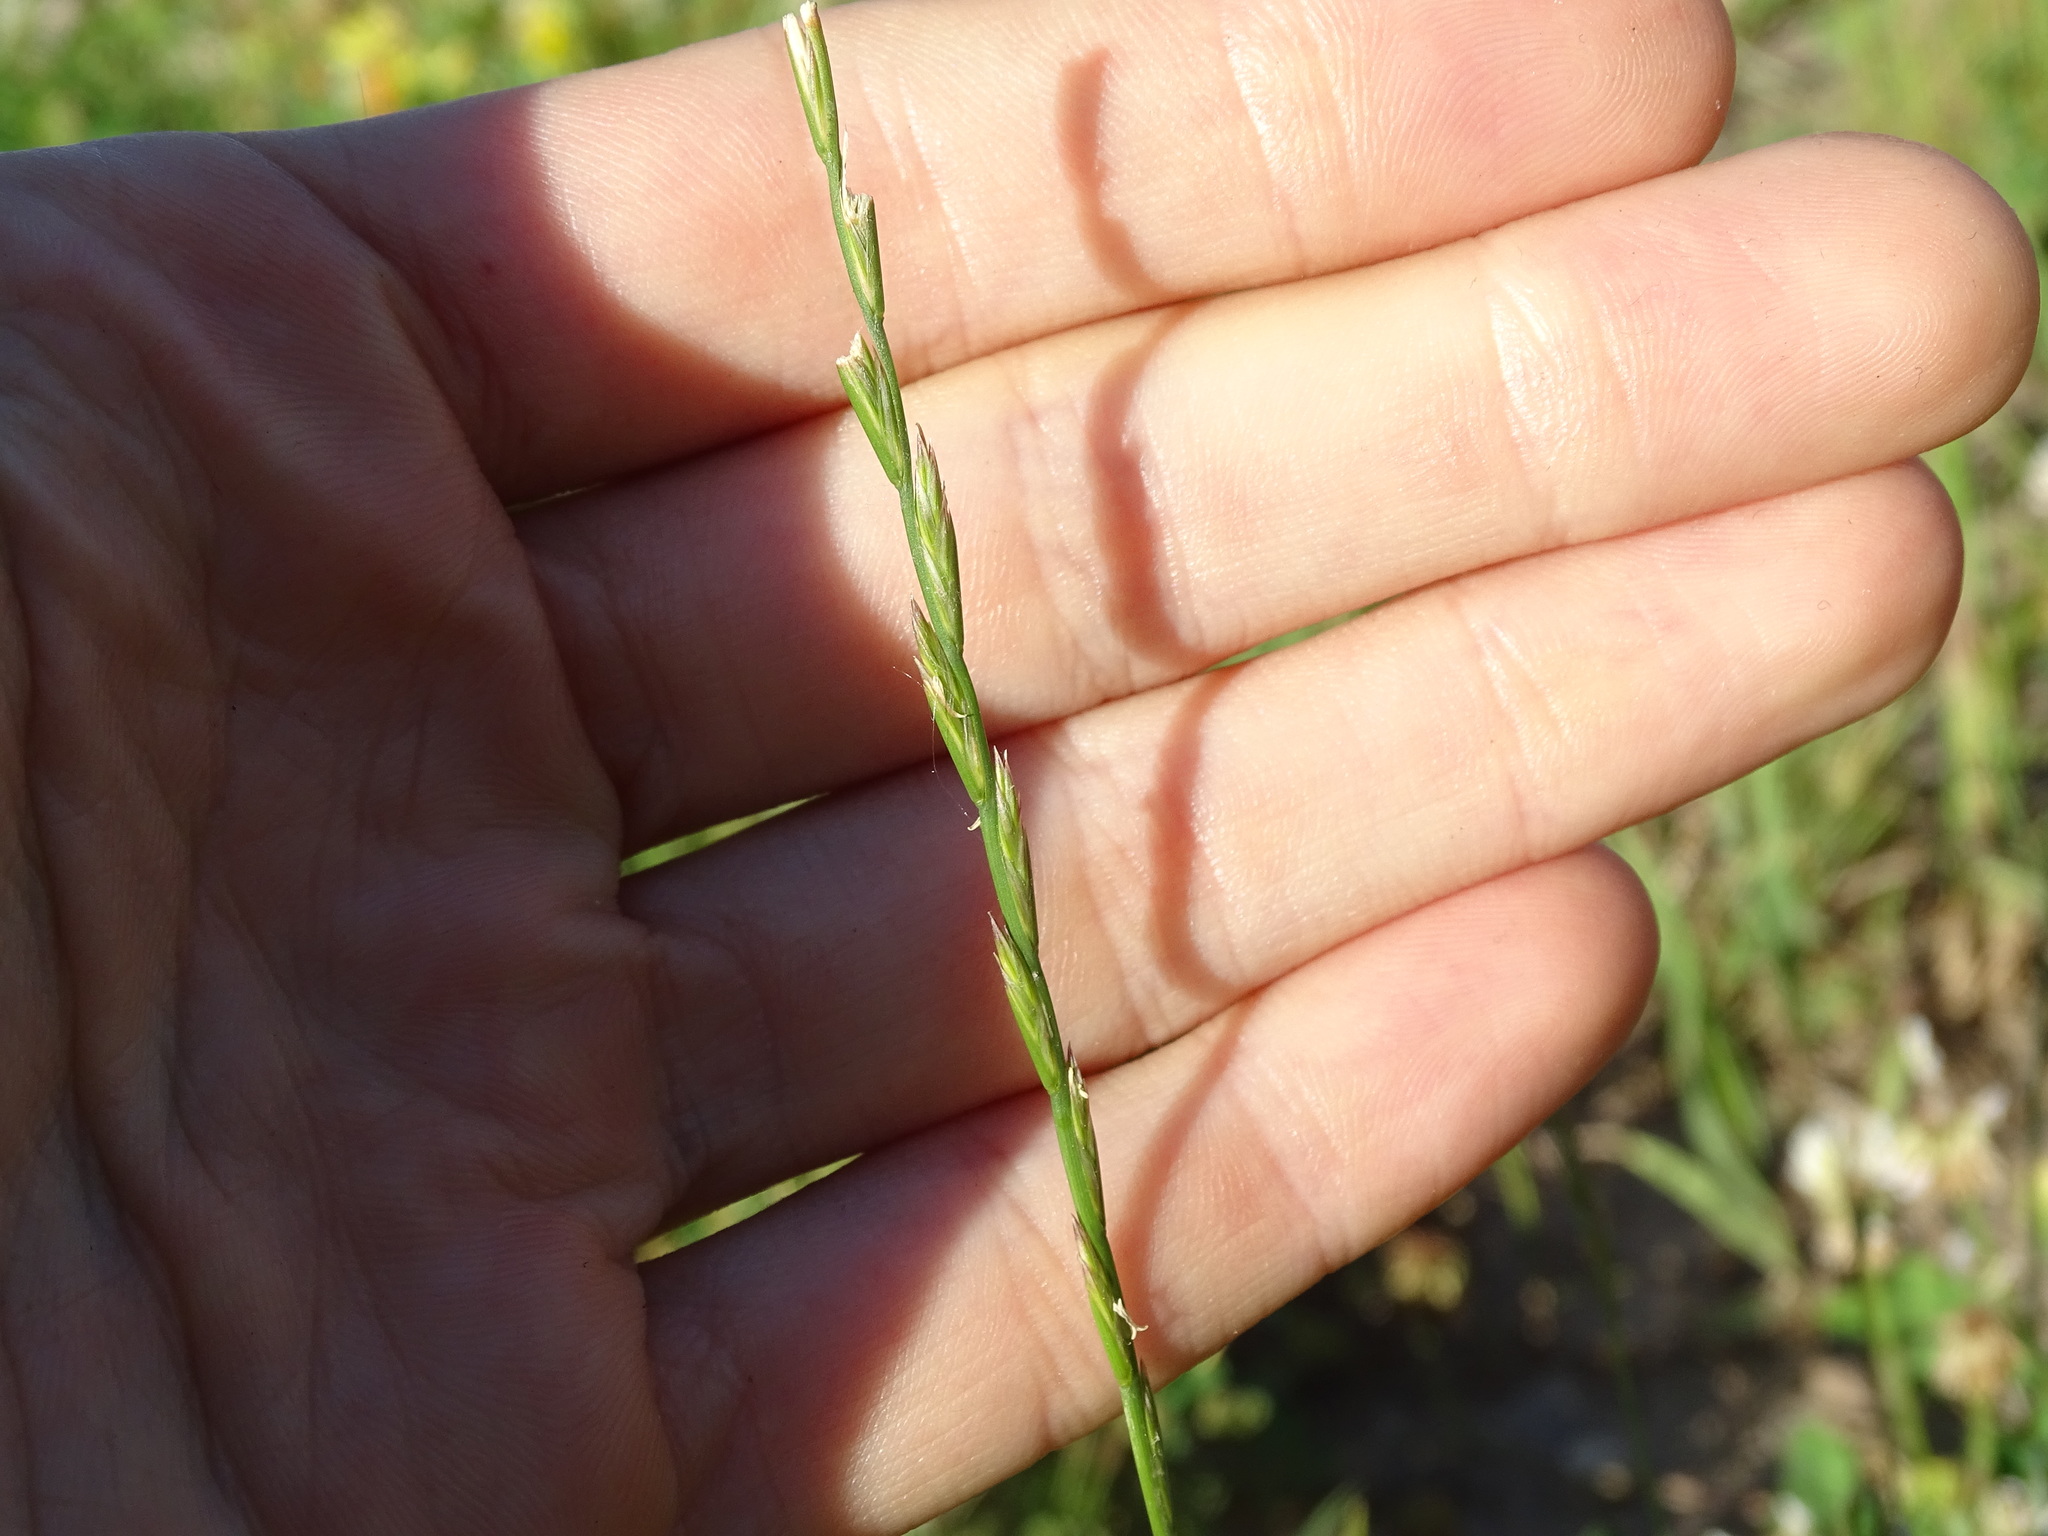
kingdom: Plantae
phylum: Tracheophyta
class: Liliopsida
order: Poales
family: Poaceae
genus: Lolium
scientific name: Lolium perenne
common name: Perennial ryegrass
